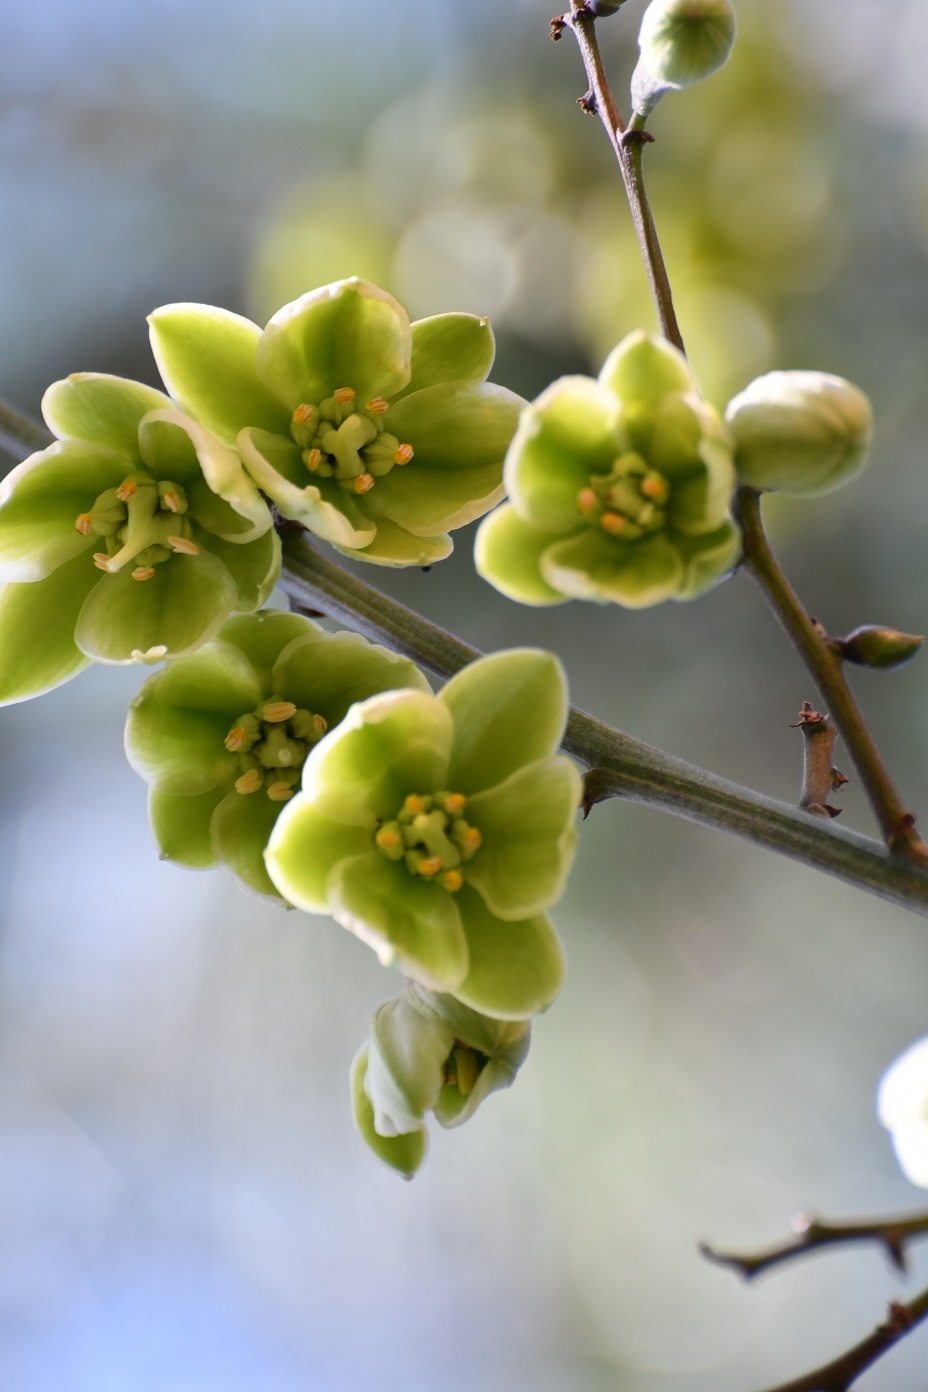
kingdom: Plantae
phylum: Tracheophyta
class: Liliopsida
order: Asparagales
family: Asparagaceae
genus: Furcraea
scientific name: Furcraea cabuya
